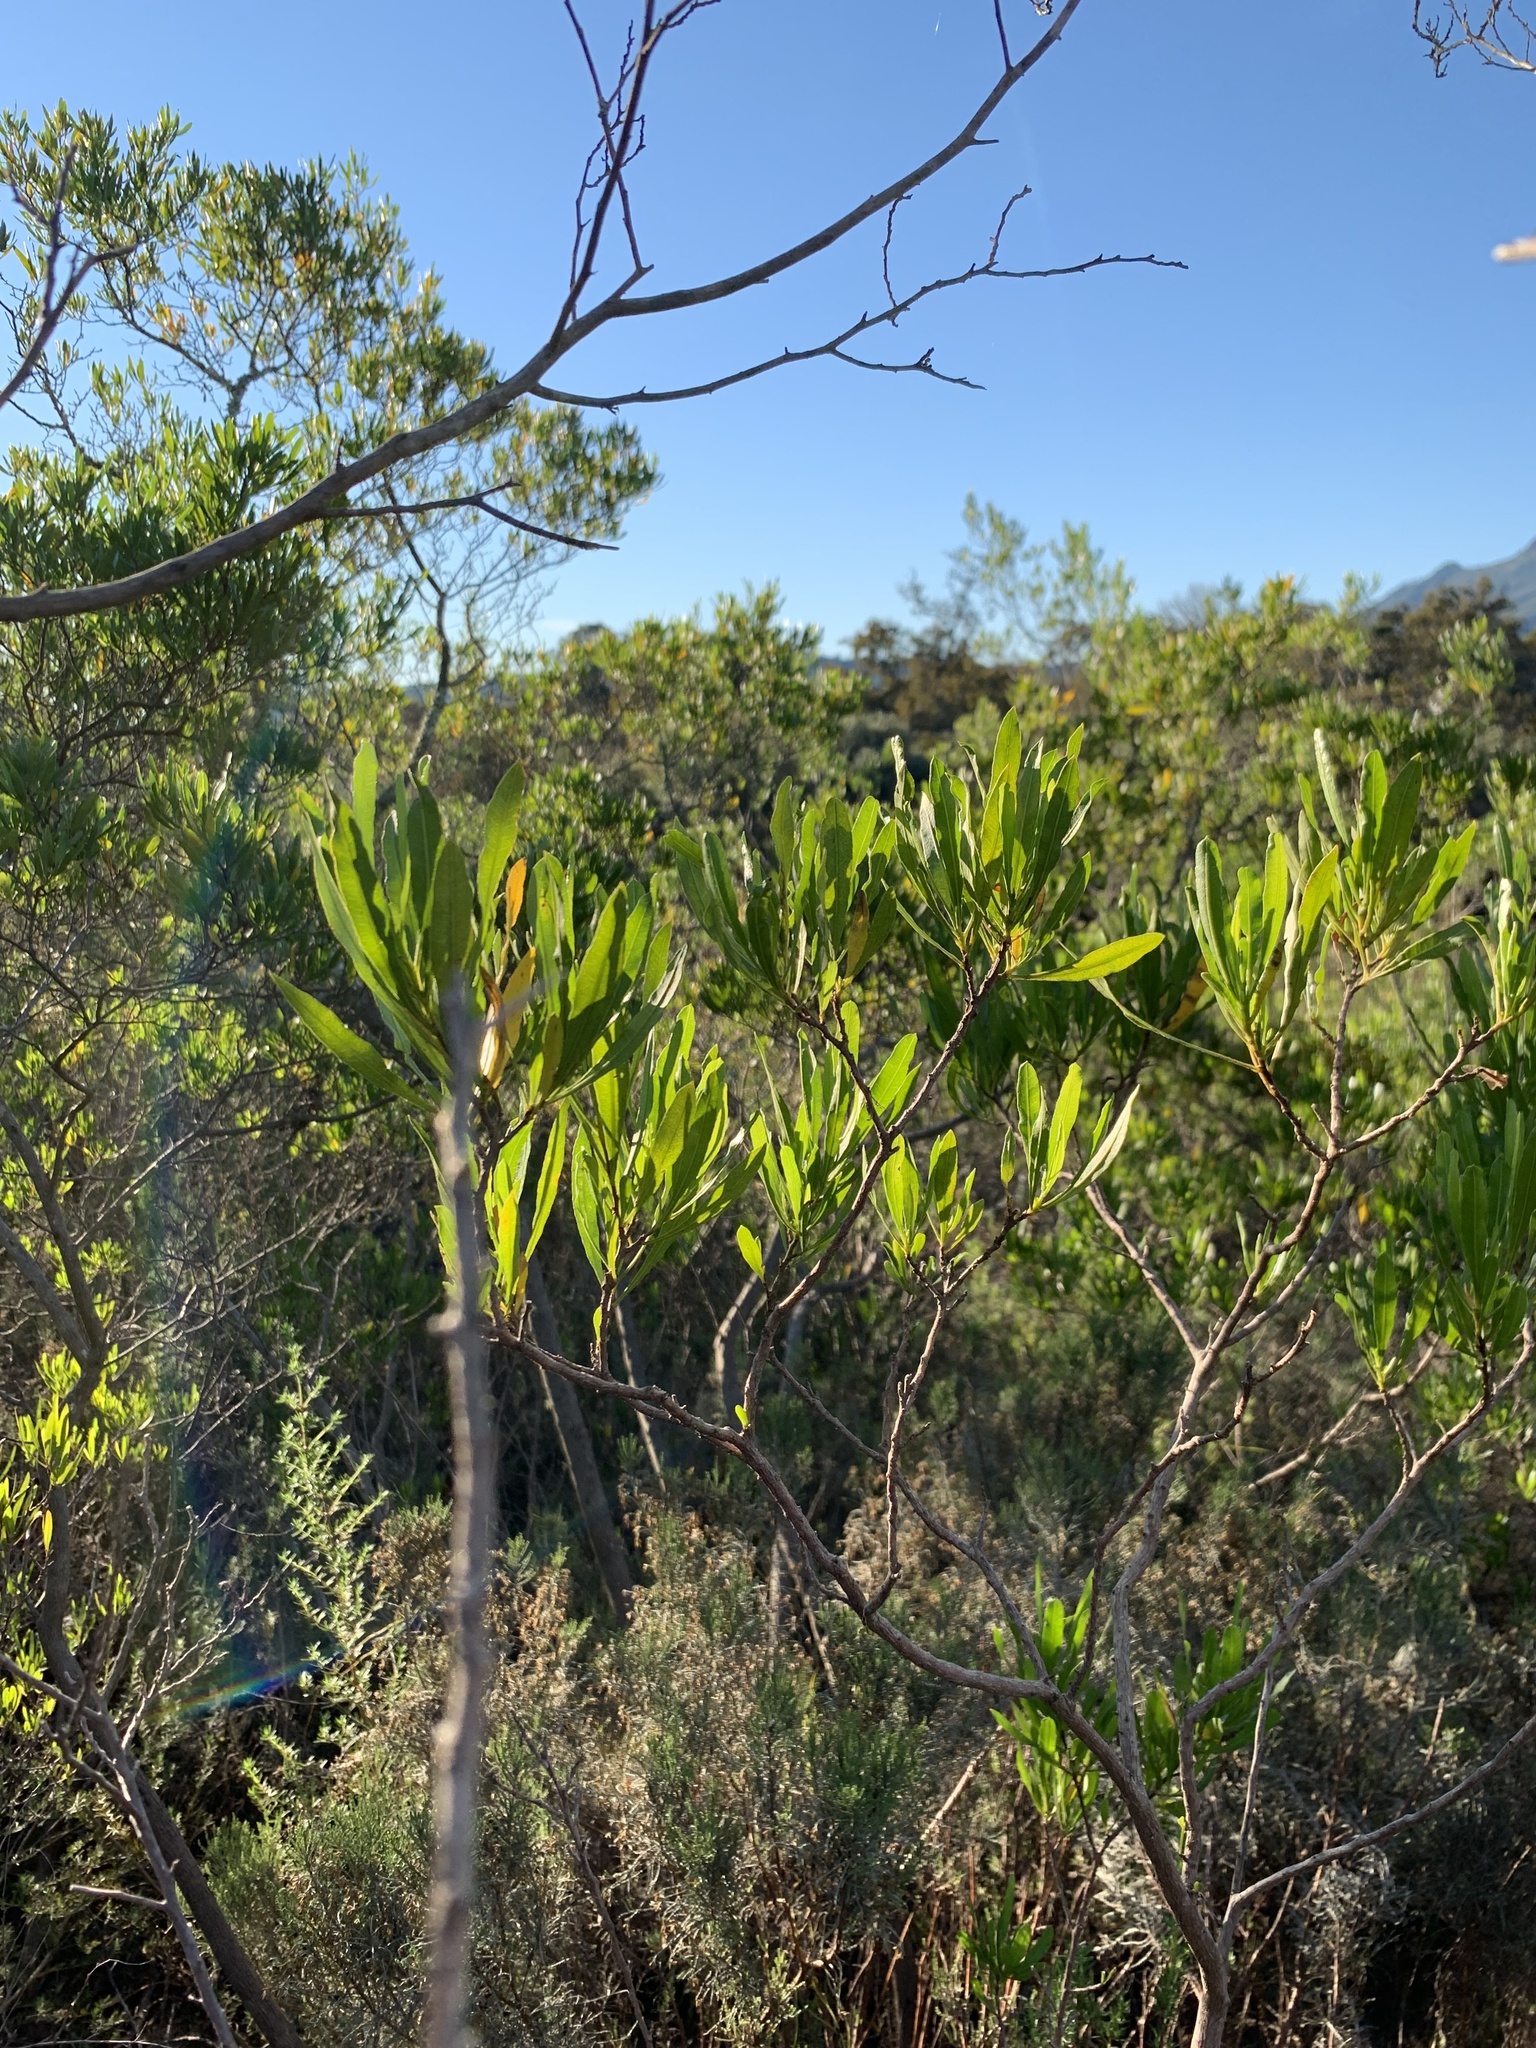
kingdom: Plantae
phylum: Tracheophyta
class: Magnoliopsida
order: Sapindales
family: Sapindaceae
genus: Dodonaea
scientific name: Dodonaea viscosa
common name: Hopbush
